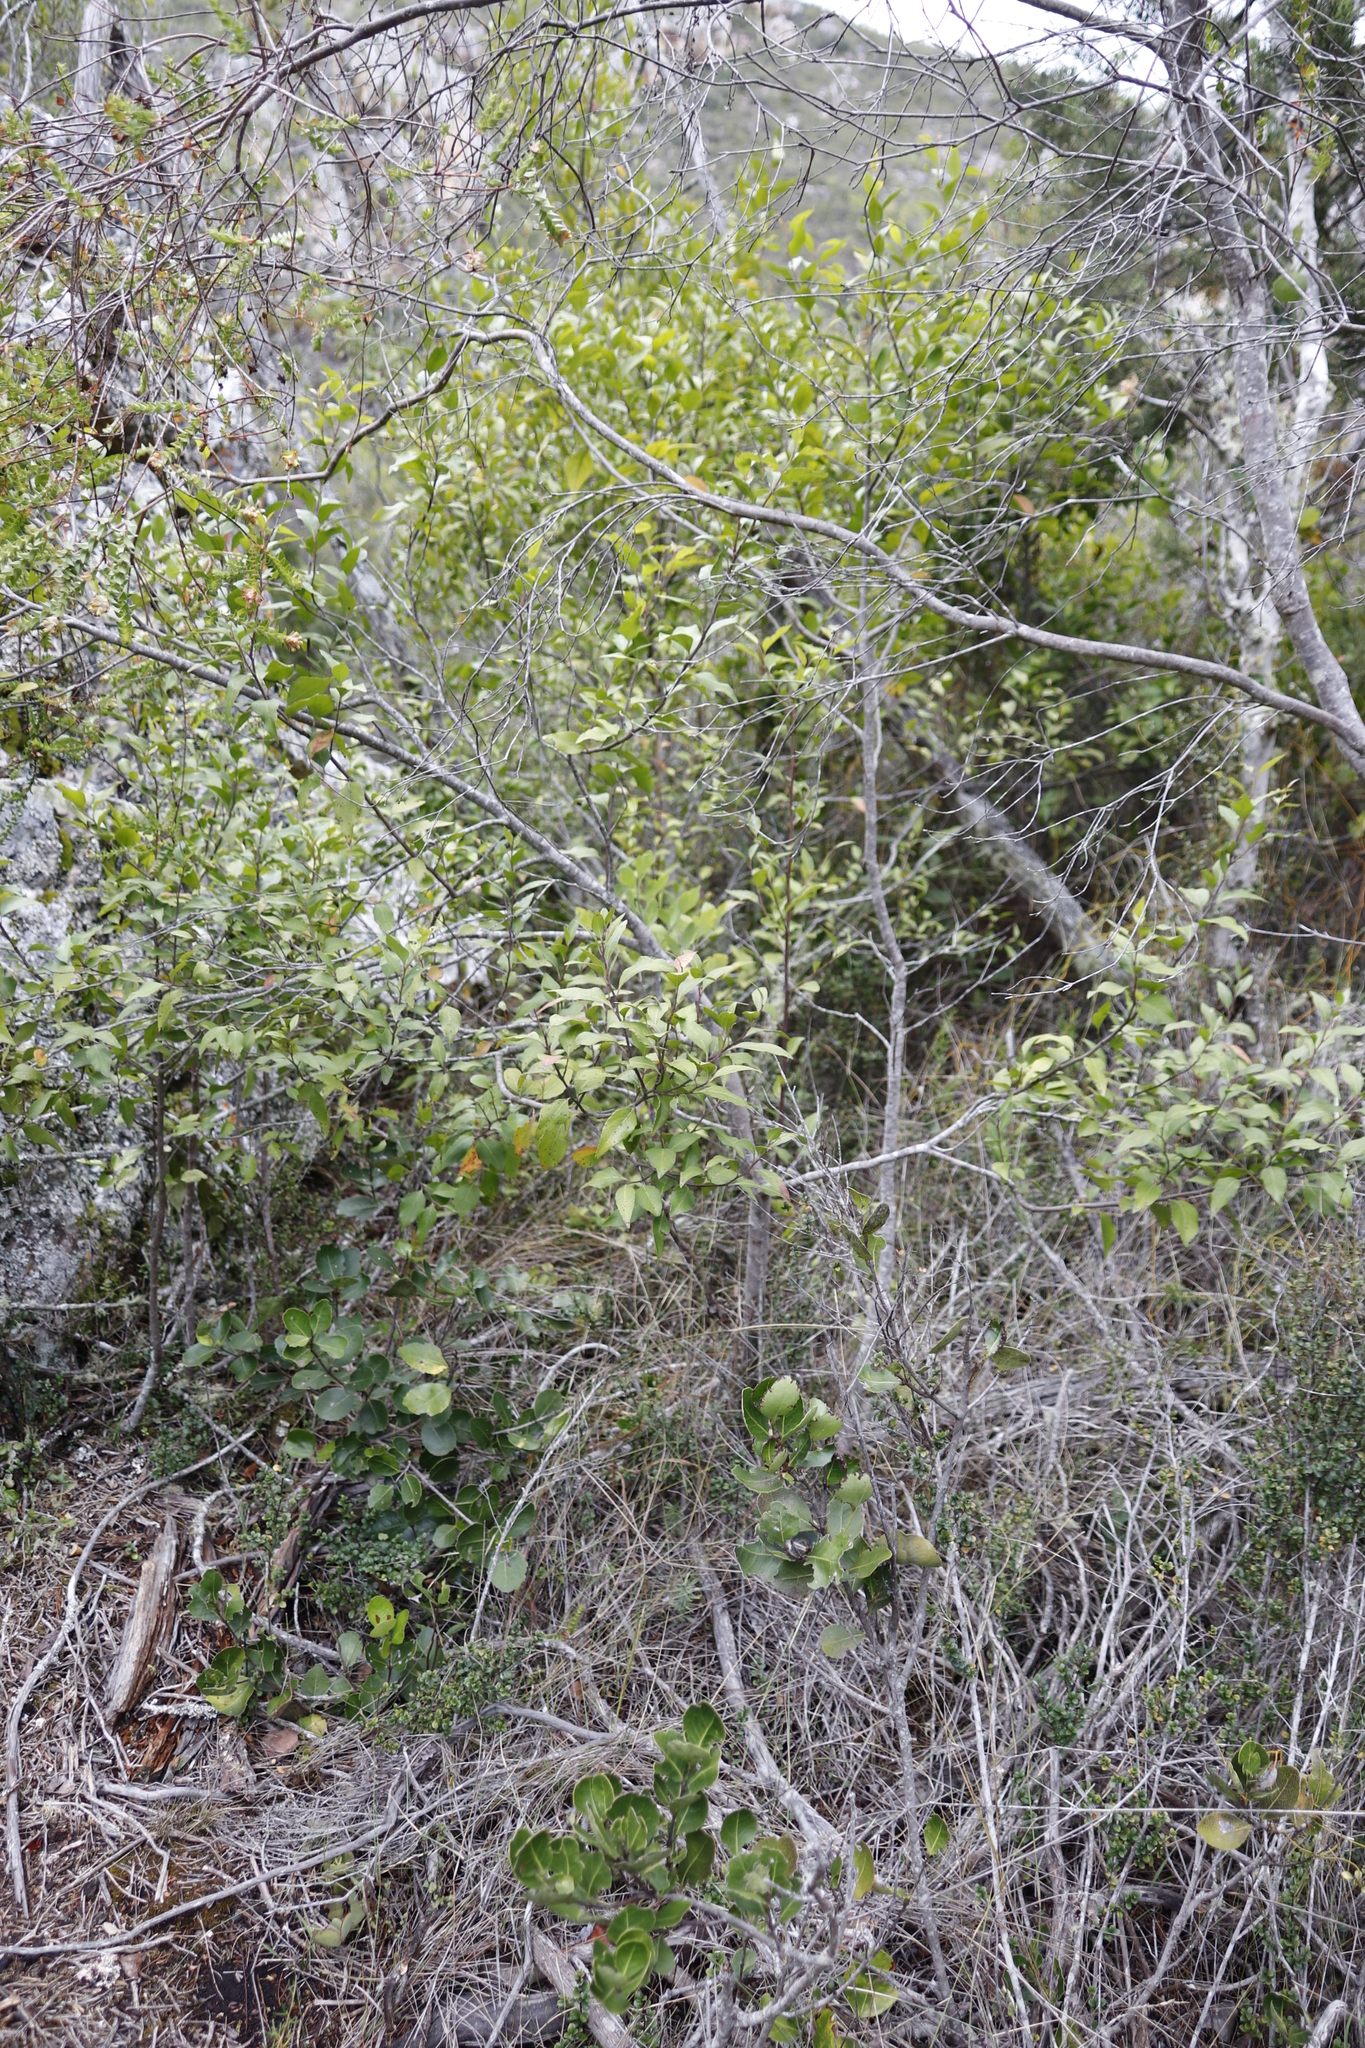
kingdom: Plantae
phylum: Tracheophyta
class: Magnoliopsida
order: Celastrales
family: Celastraceae
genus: Gymnosporia
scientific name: Gymnosporia acuminata
